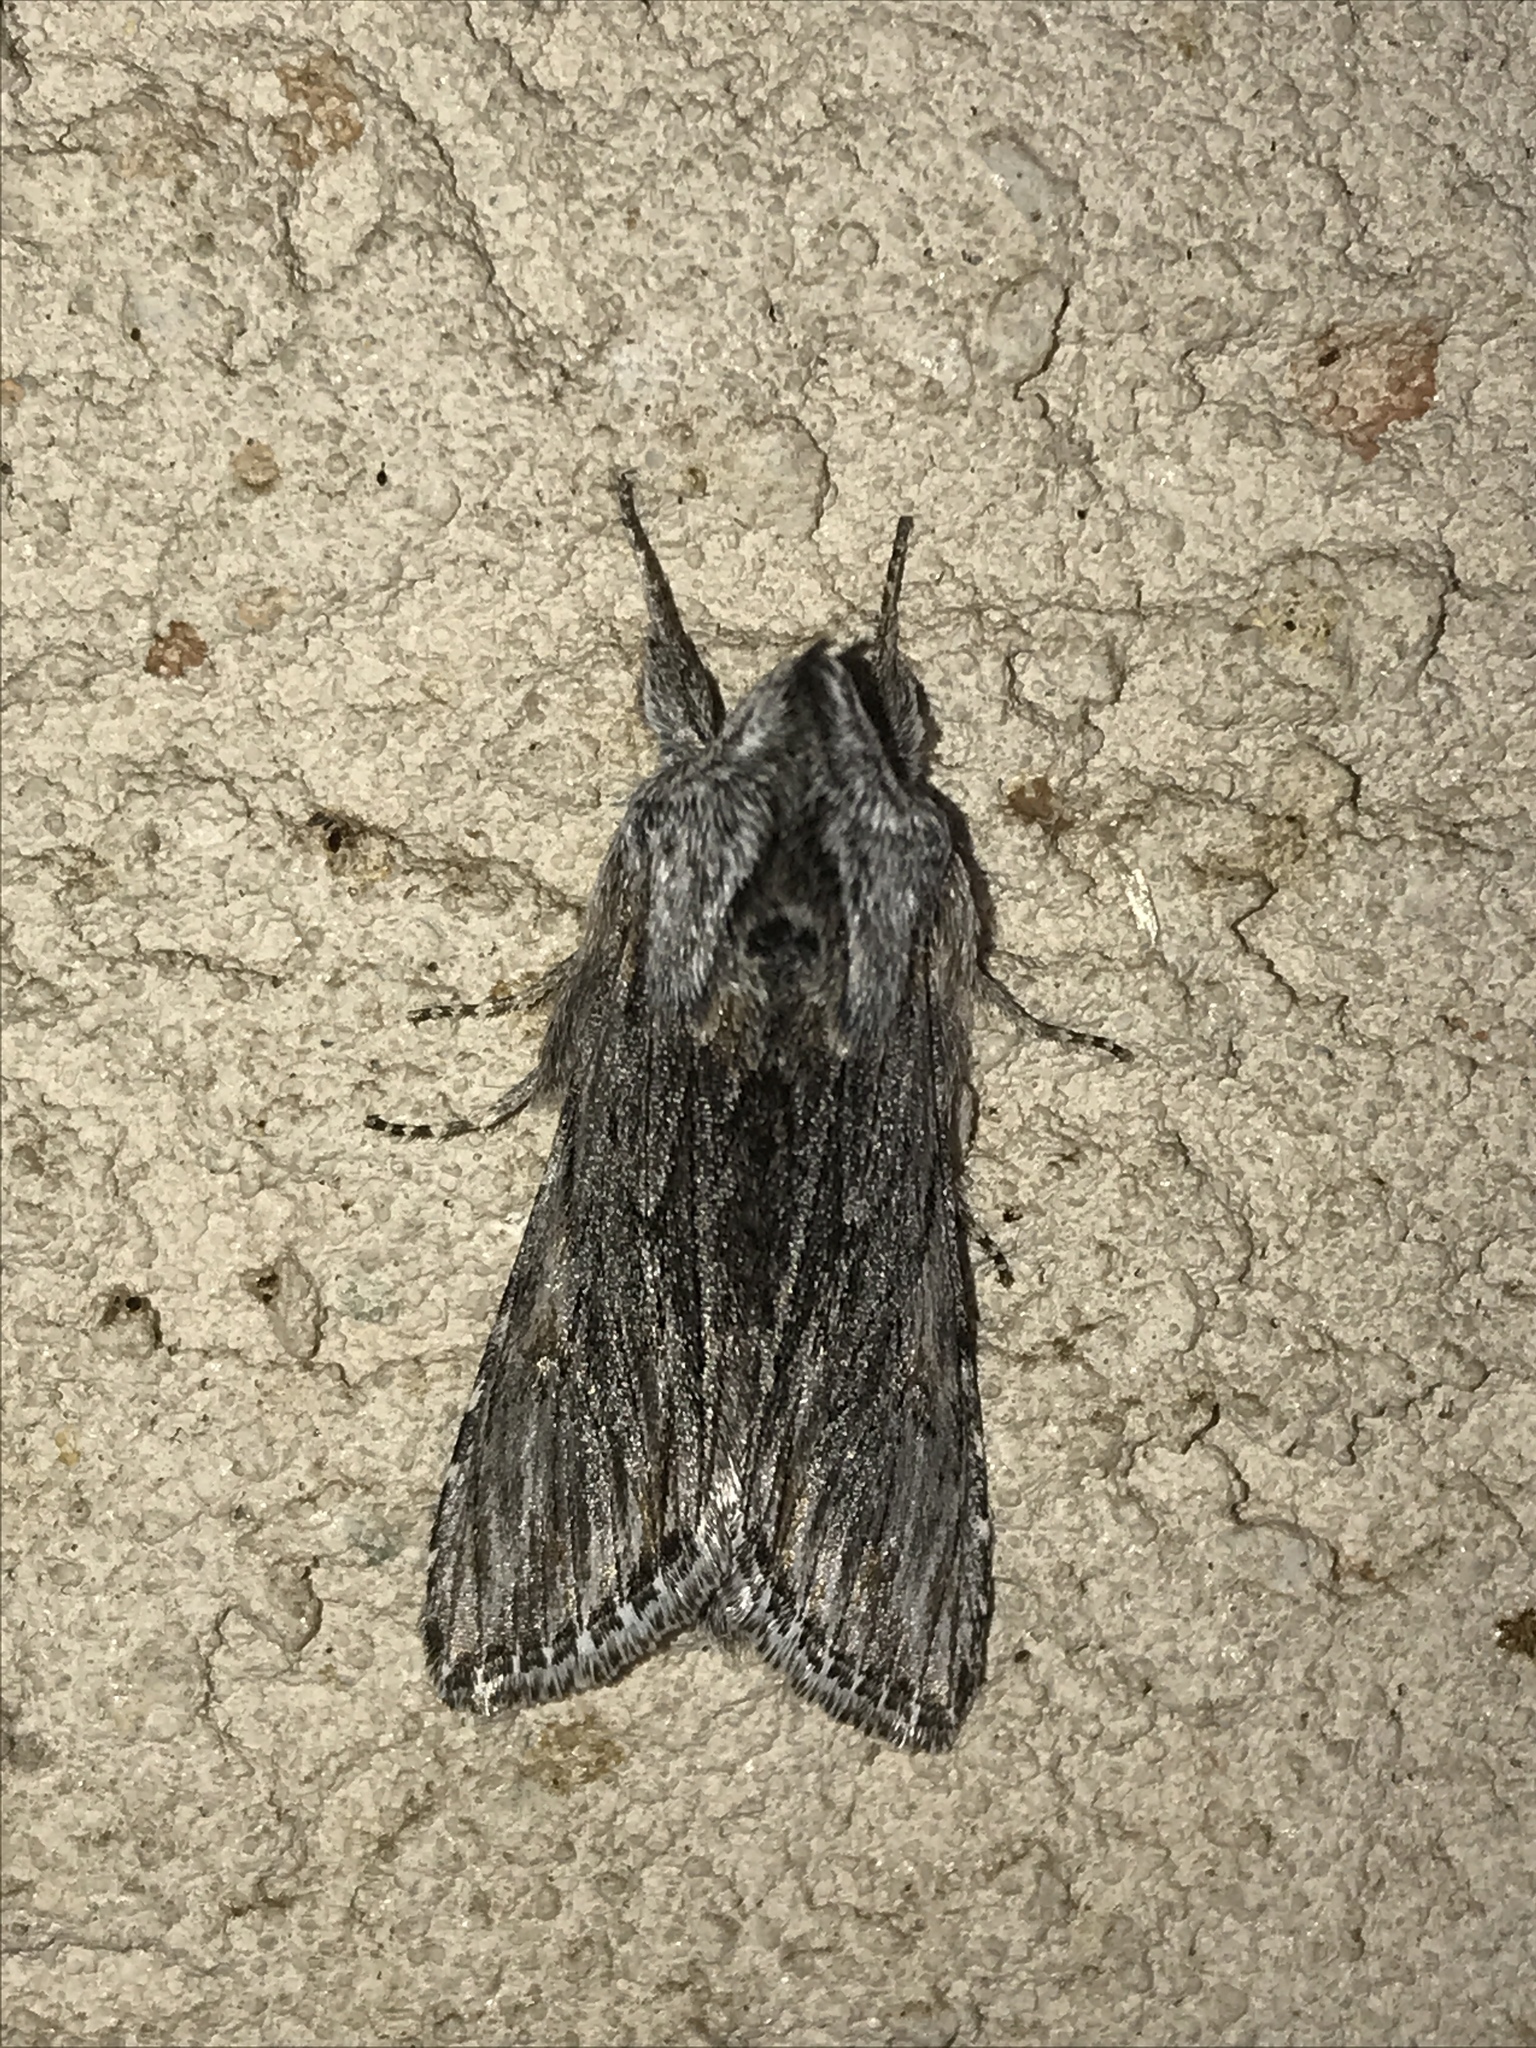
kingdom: Animalia
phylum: Arthropoda
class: Insecta
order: Lepidoptera
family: Noctuidae
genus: Cucullia
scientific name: Cucullia pulla
